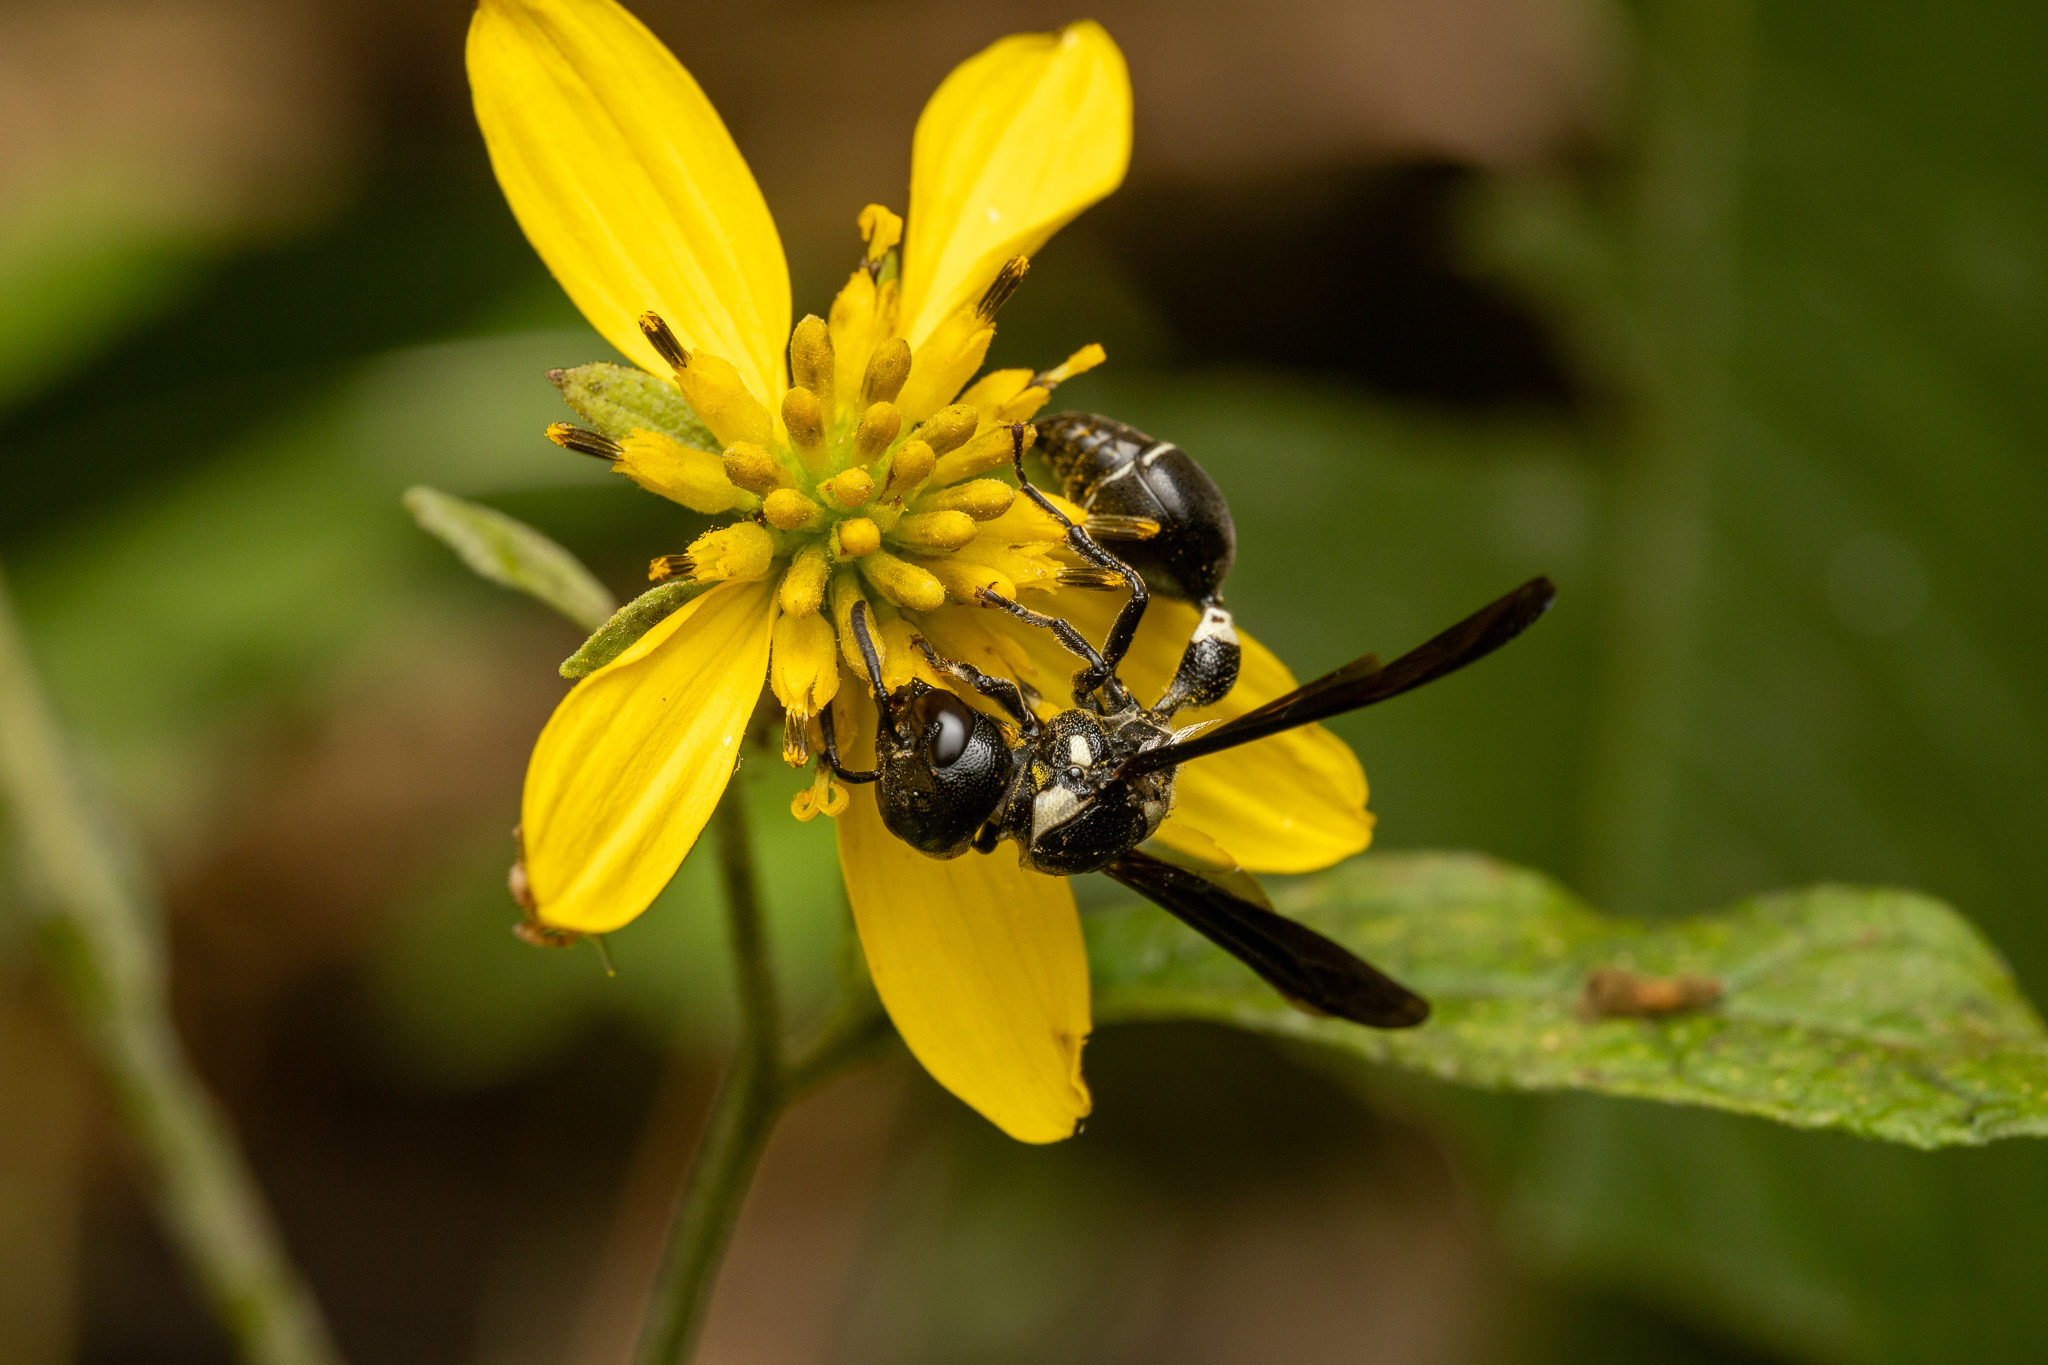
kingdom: Animalia
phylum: Arthropoda
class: Insecta
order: Hymenoptera
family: Eumenidae
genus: Zethus
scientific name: Zethus spinipes
